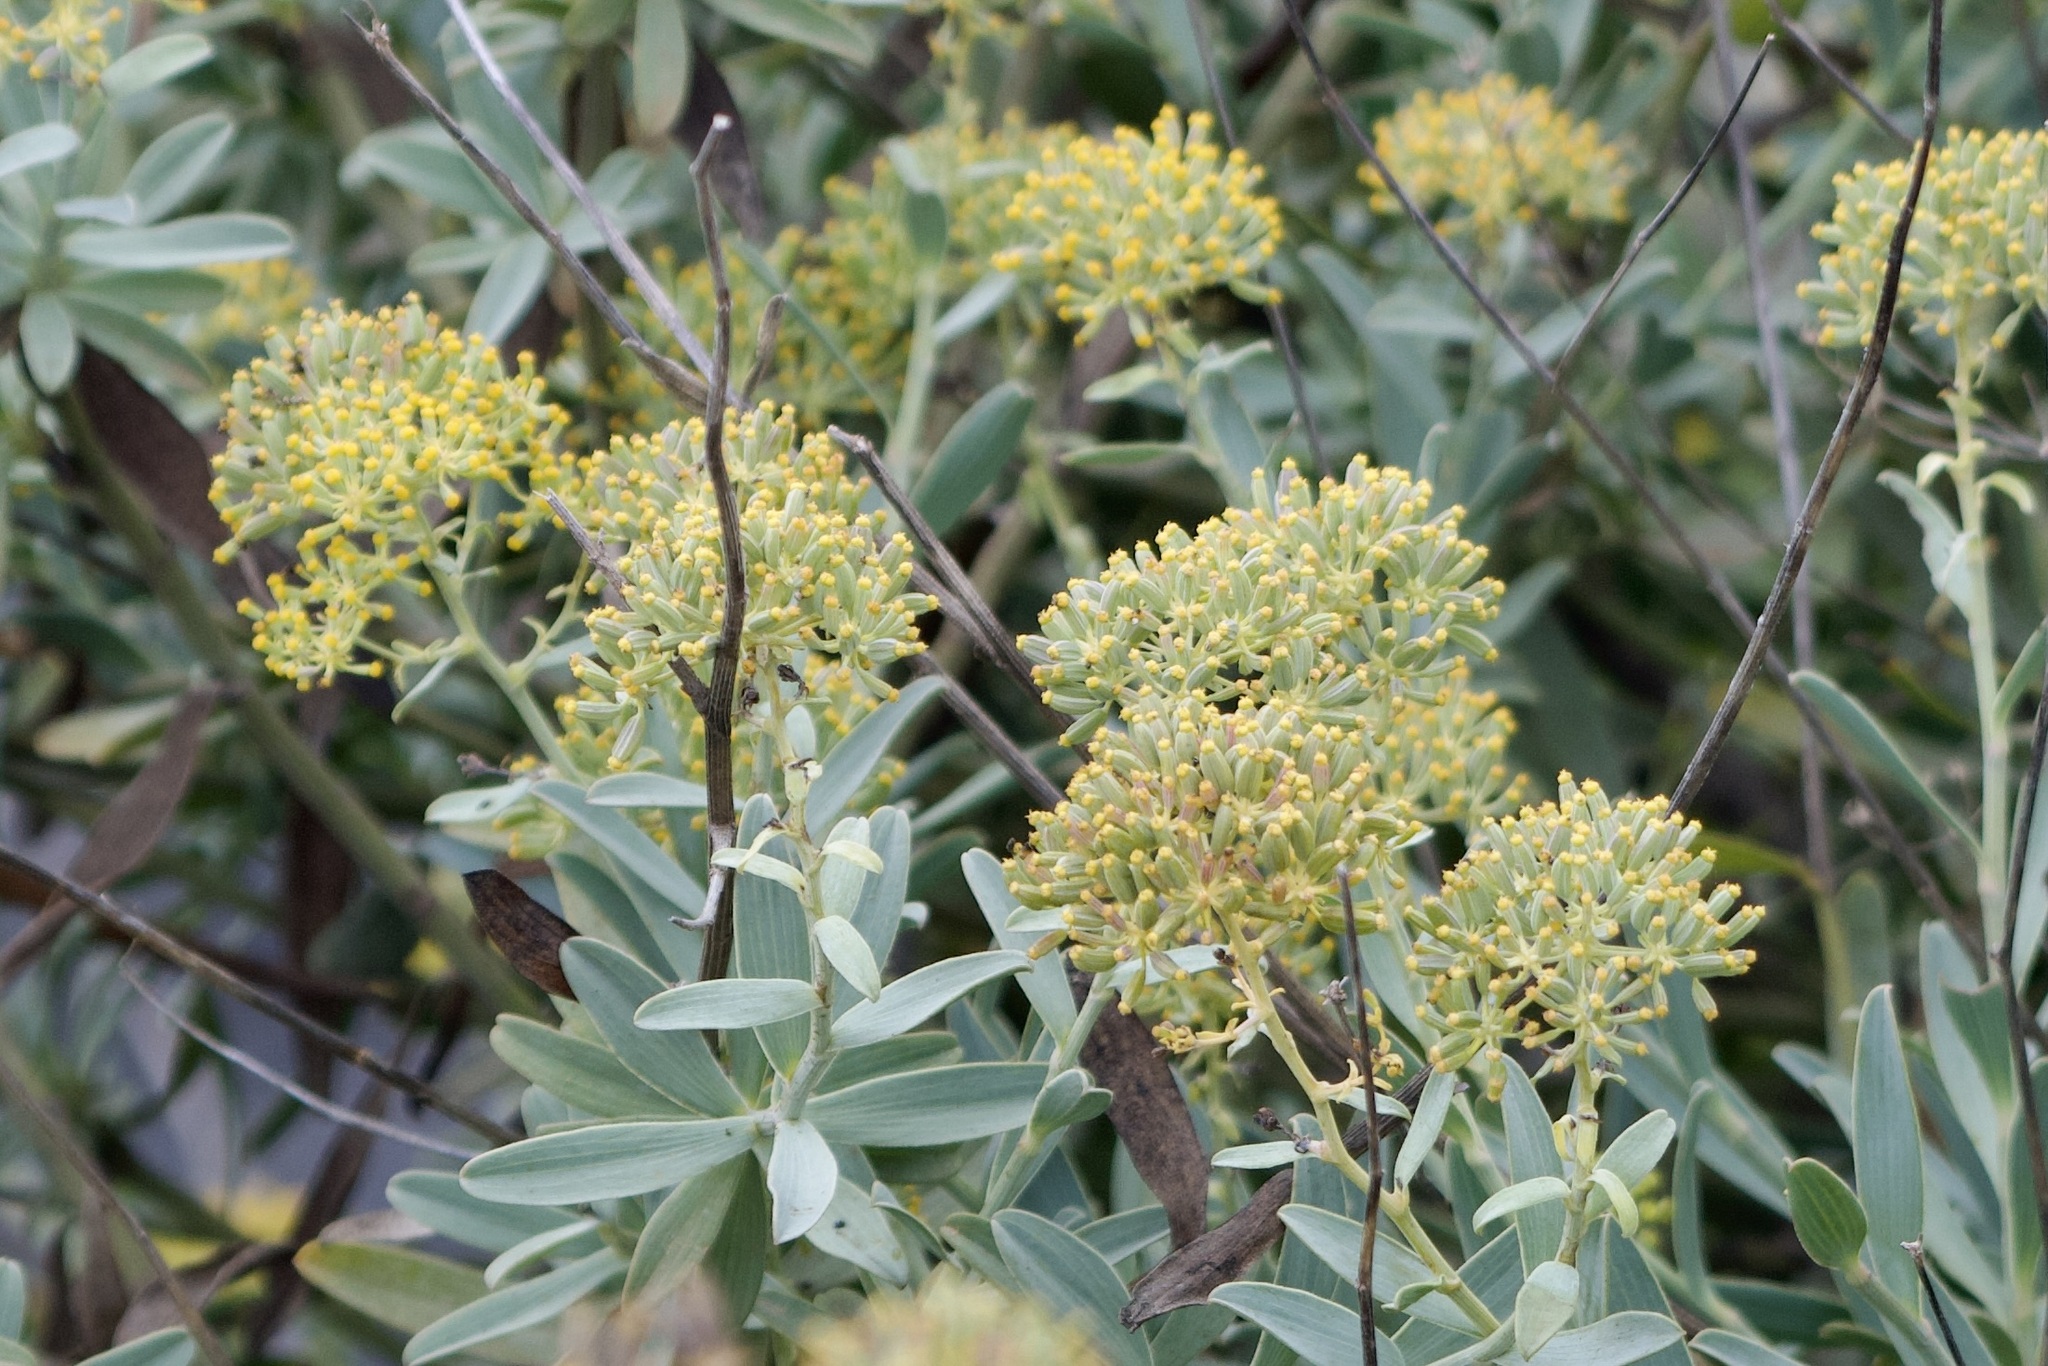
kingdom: Plantae
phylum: Tracheophyta
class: Magnoliopsida
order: Apiales
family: Apiaceae
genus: Bupleurum
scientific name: Bupleurum handiense
